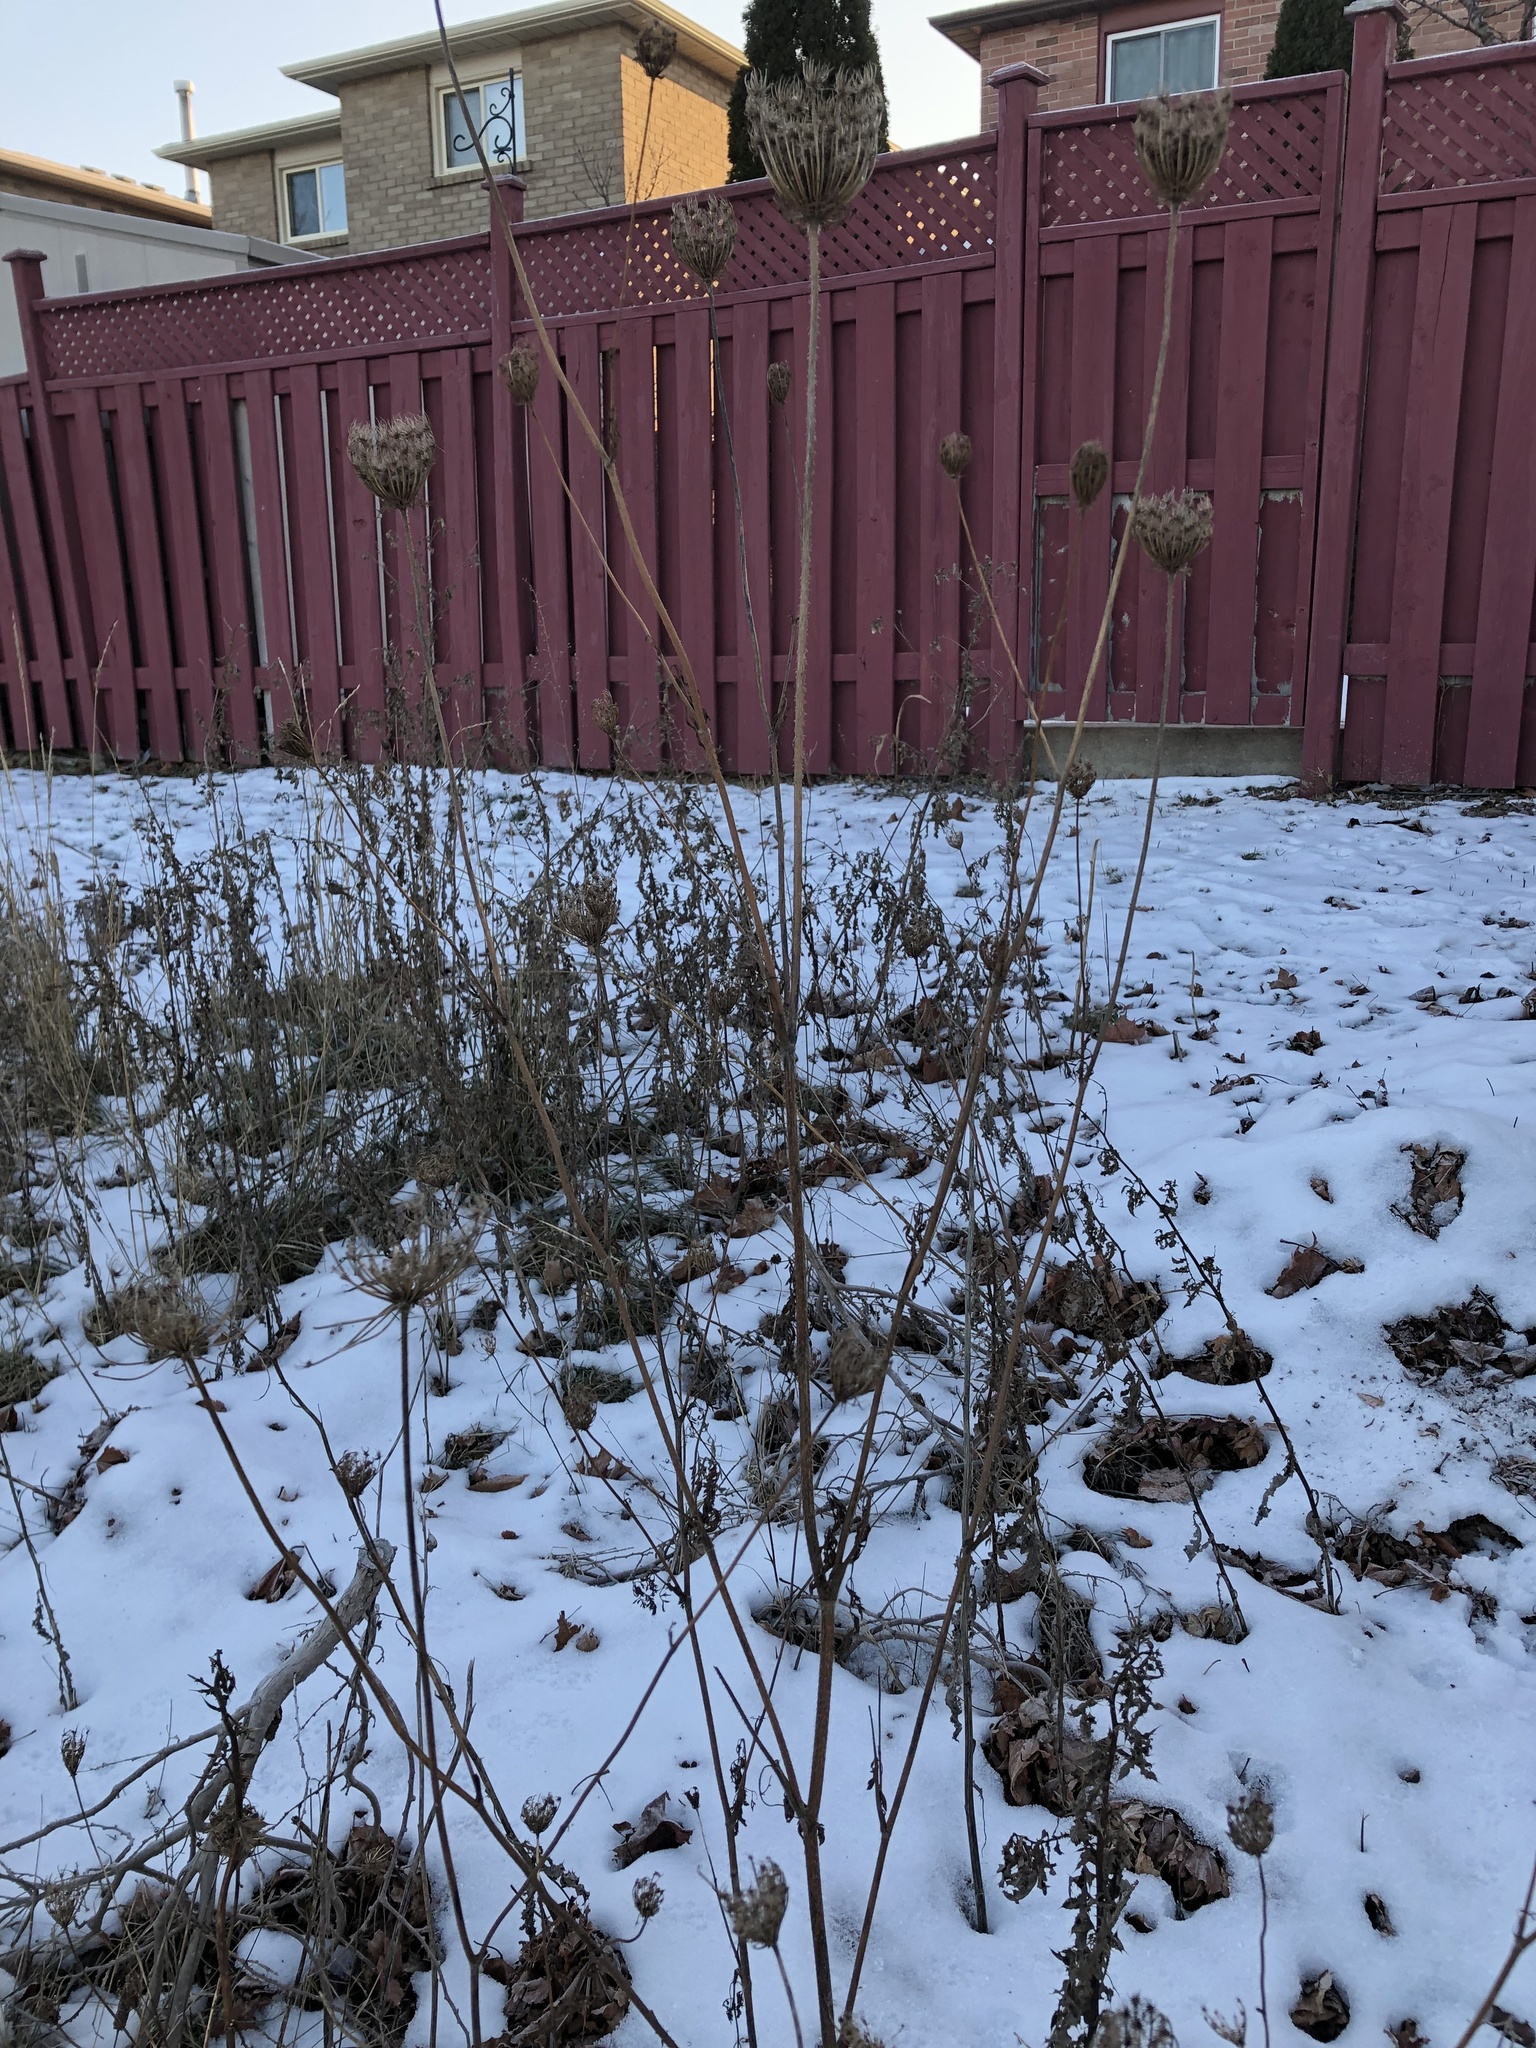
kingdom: Plantae
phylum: Tracheophyta
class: Magnoliopsida
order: Apiales
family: Apiaceae
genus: Daucus
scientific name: Daucus carota
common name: Wild carrot
